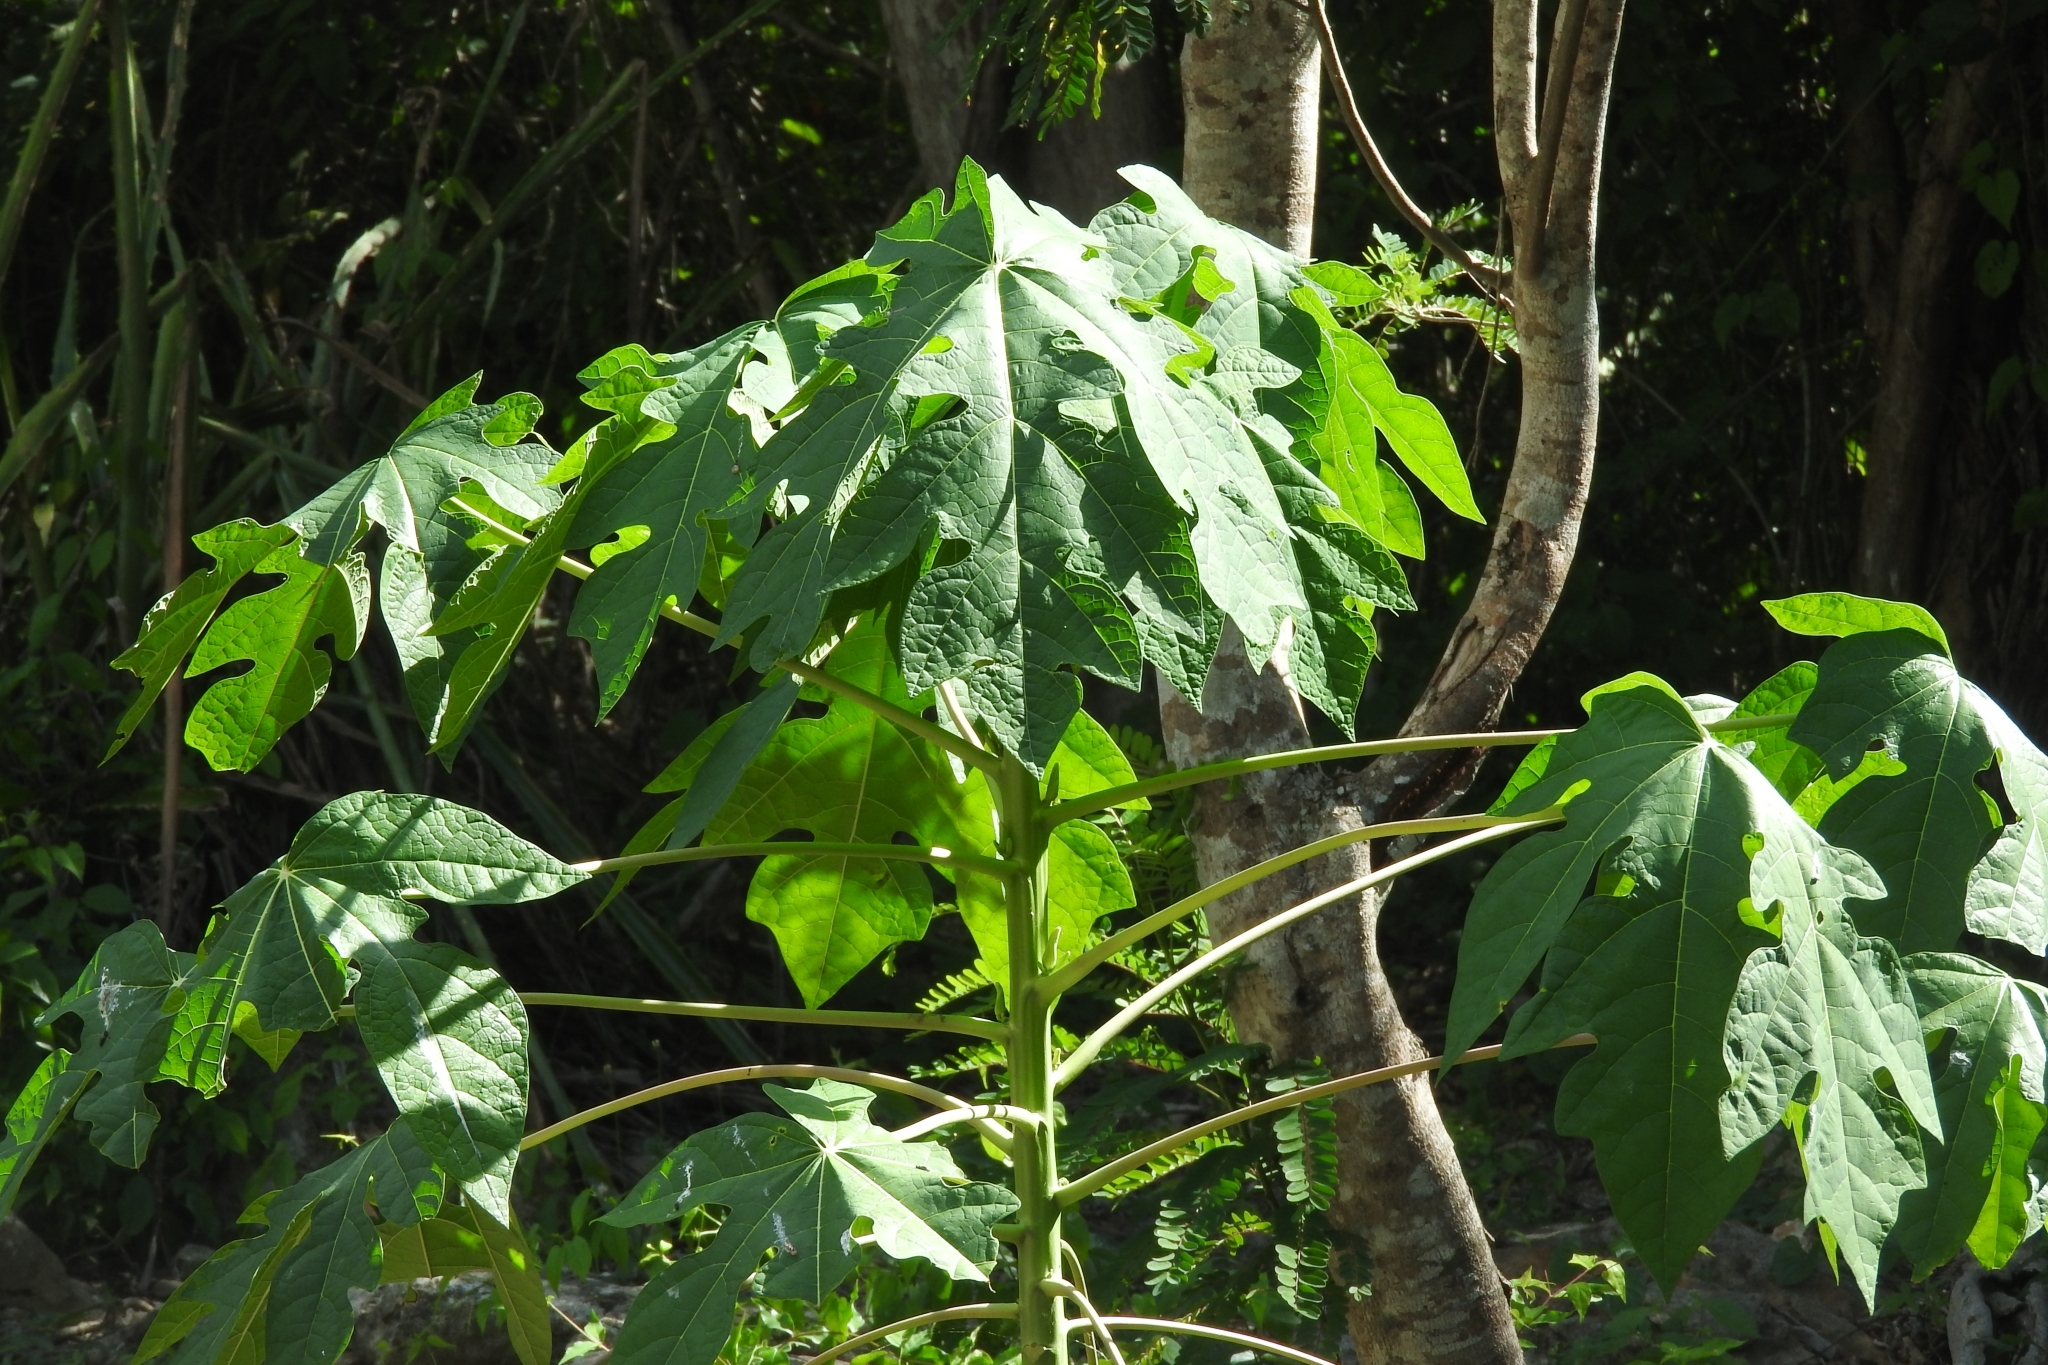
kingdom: Plantae
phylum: Tracheophyta
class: Magnoliopsida
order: Brassicales
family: Caricaceae
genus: Carica
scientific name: Carica papaya
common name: Papaya
